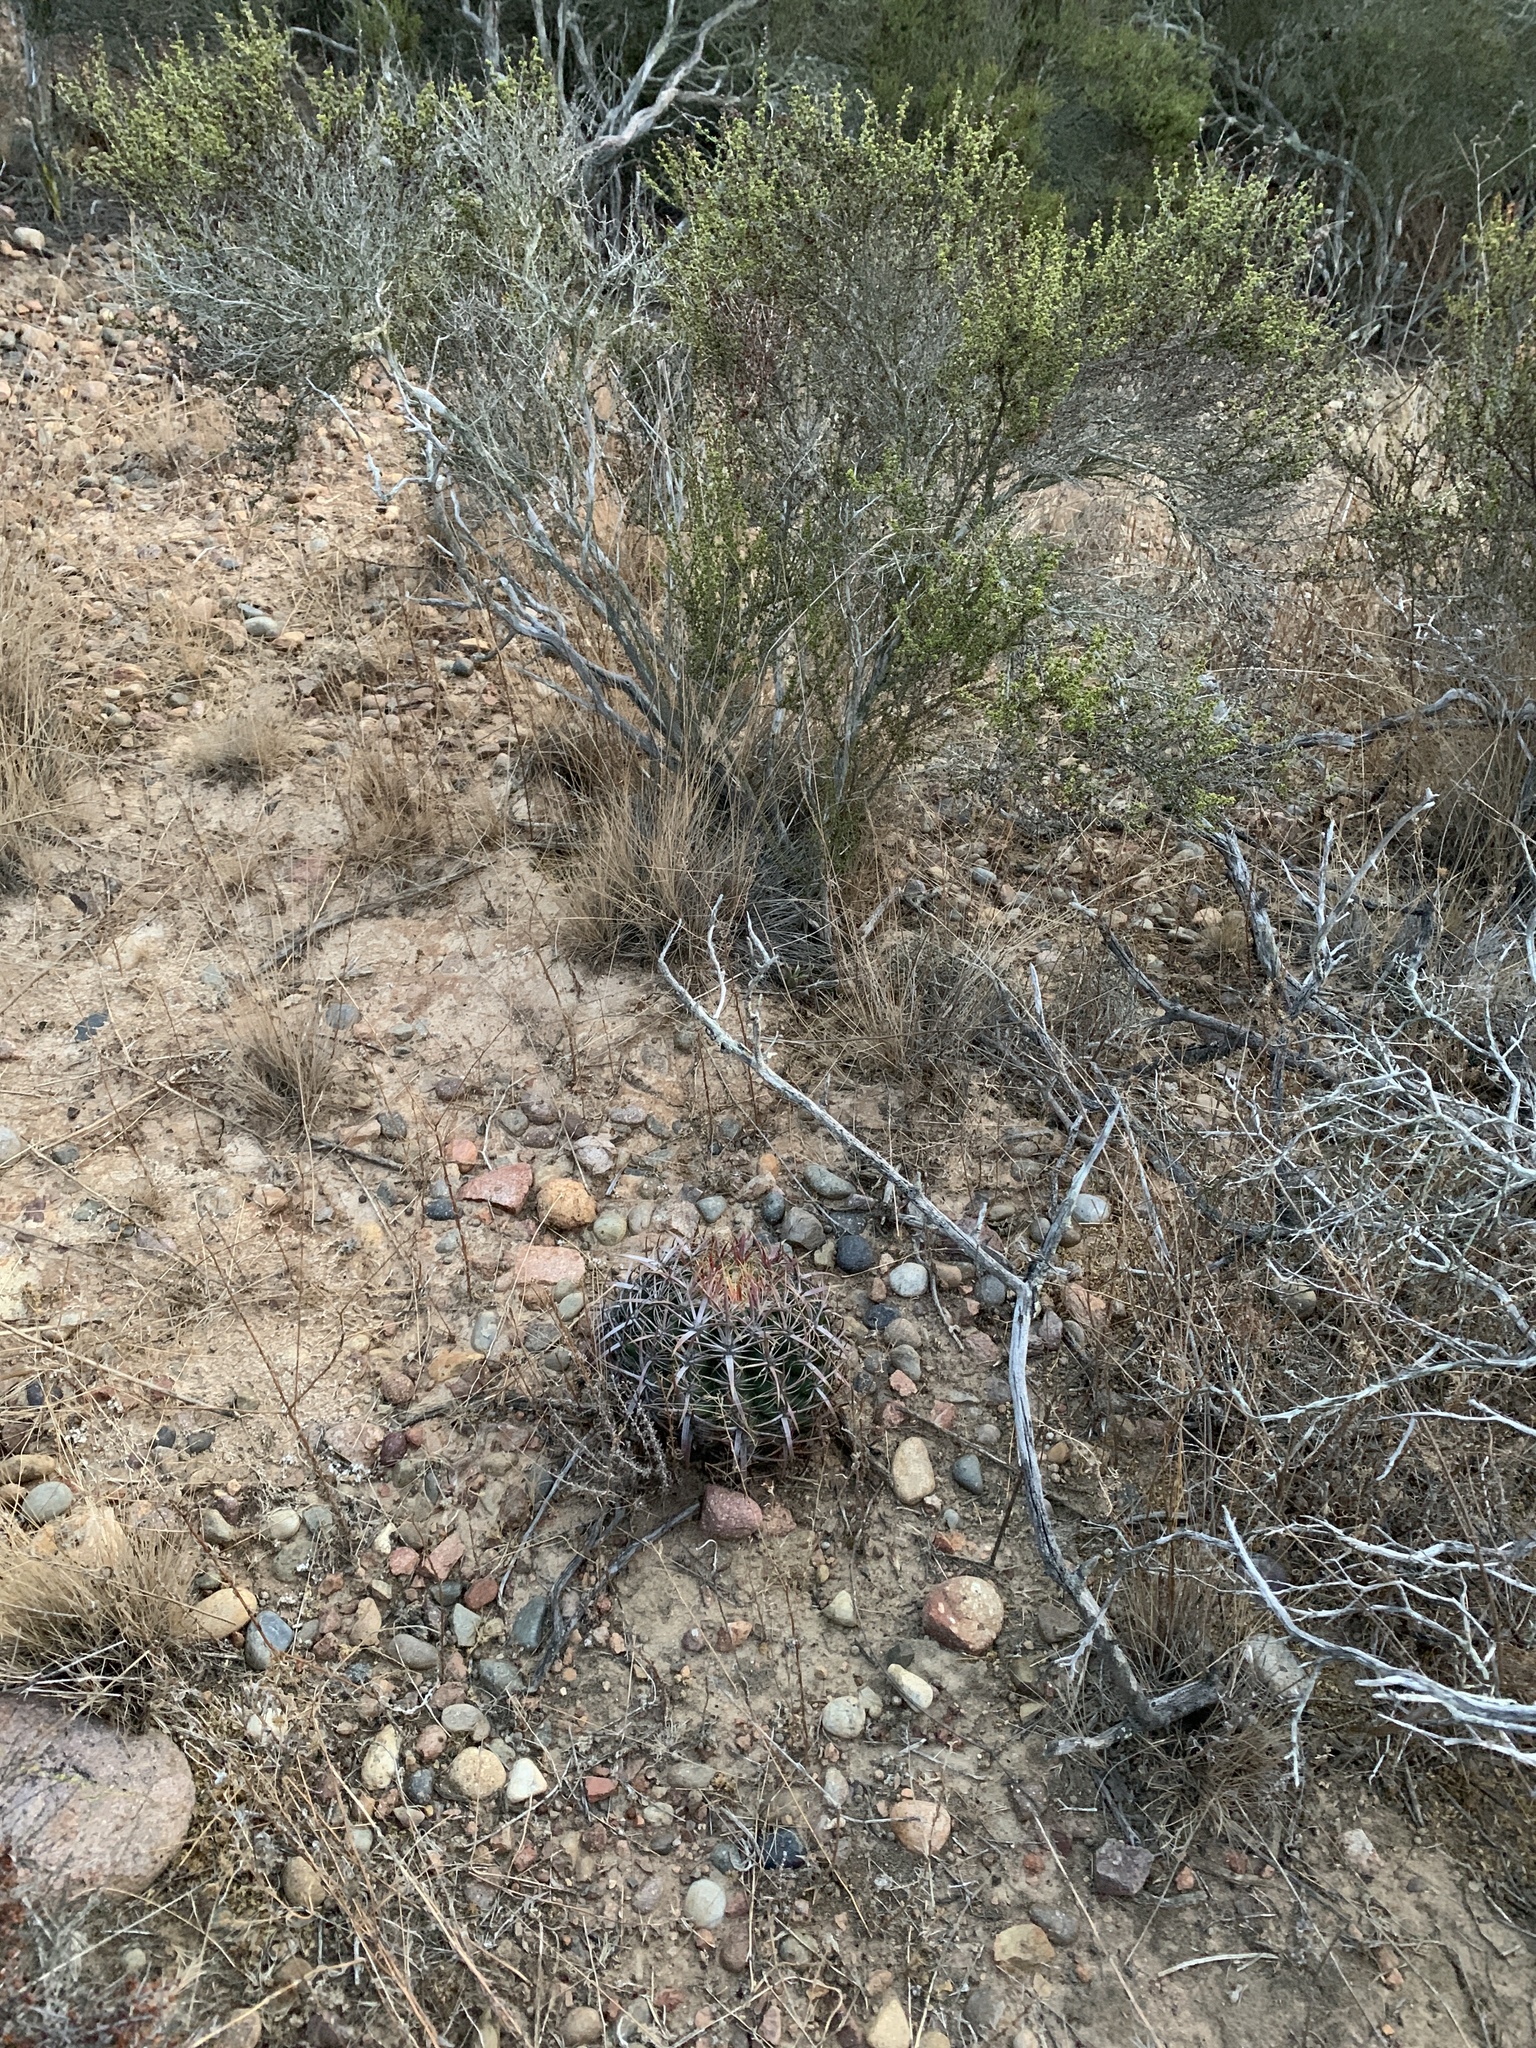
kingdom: Plantae
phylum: Tracheophyta
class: Magnoliopsida
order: Caryophyllales
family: Cactaceae
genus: Ferocactus
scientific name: Ferocactus viridescens
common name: San diego barrel cactus
